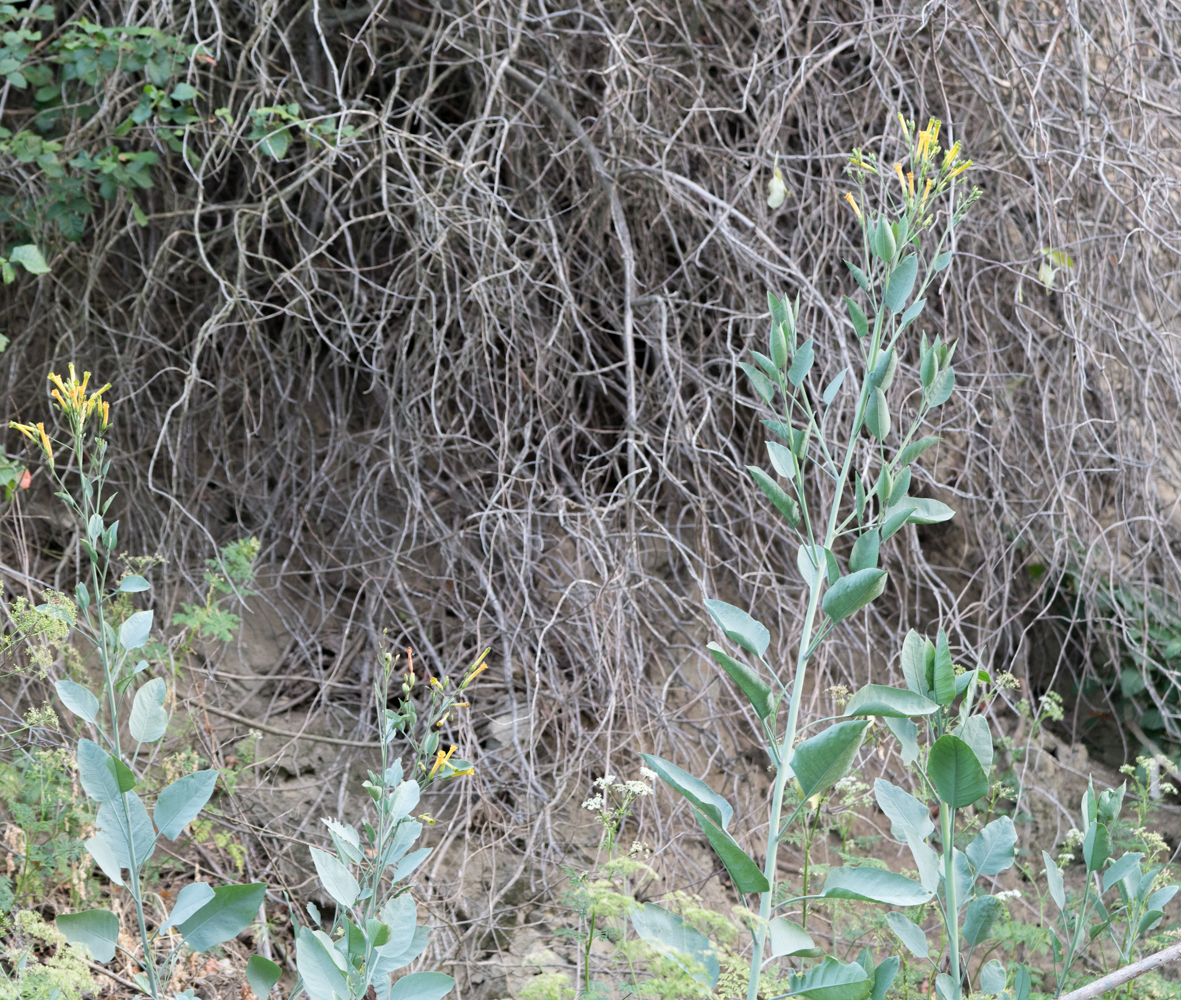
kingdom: Plantae
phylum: Tracheophyta
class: Magnoliopsida
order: Solanales
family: Solanaceae
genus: Nicotiana
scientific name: Nicotiana glauca
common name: Tree tobacco
